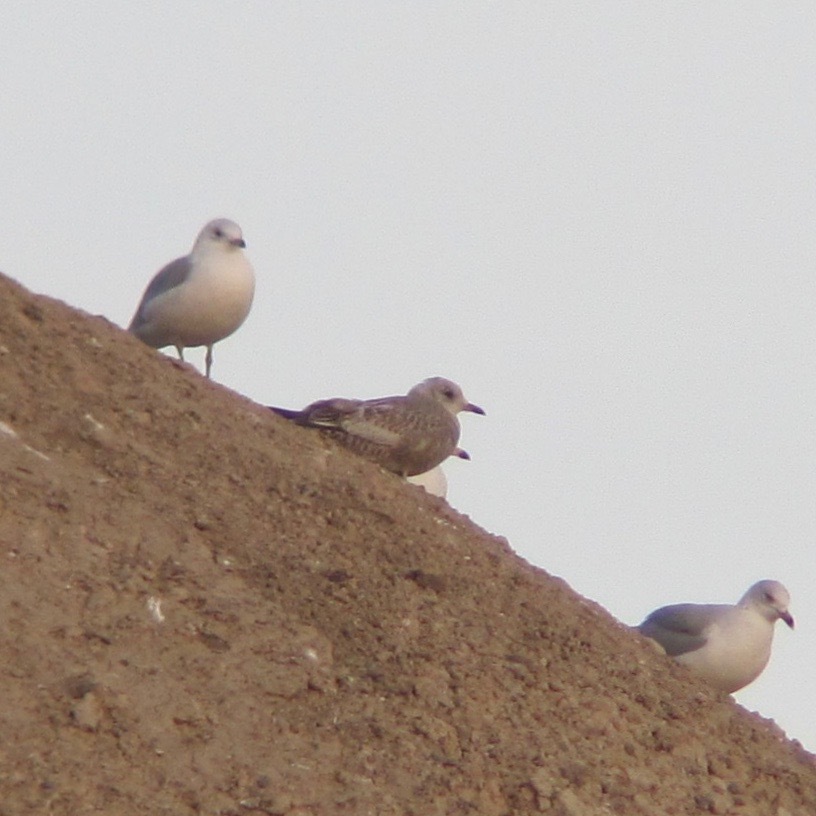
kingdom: Animalia
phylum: Chordata
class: Aves
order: Charadriiformes
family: Laridae
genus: Larus
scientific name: Larus delawarensis
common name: Ring-billed gull
